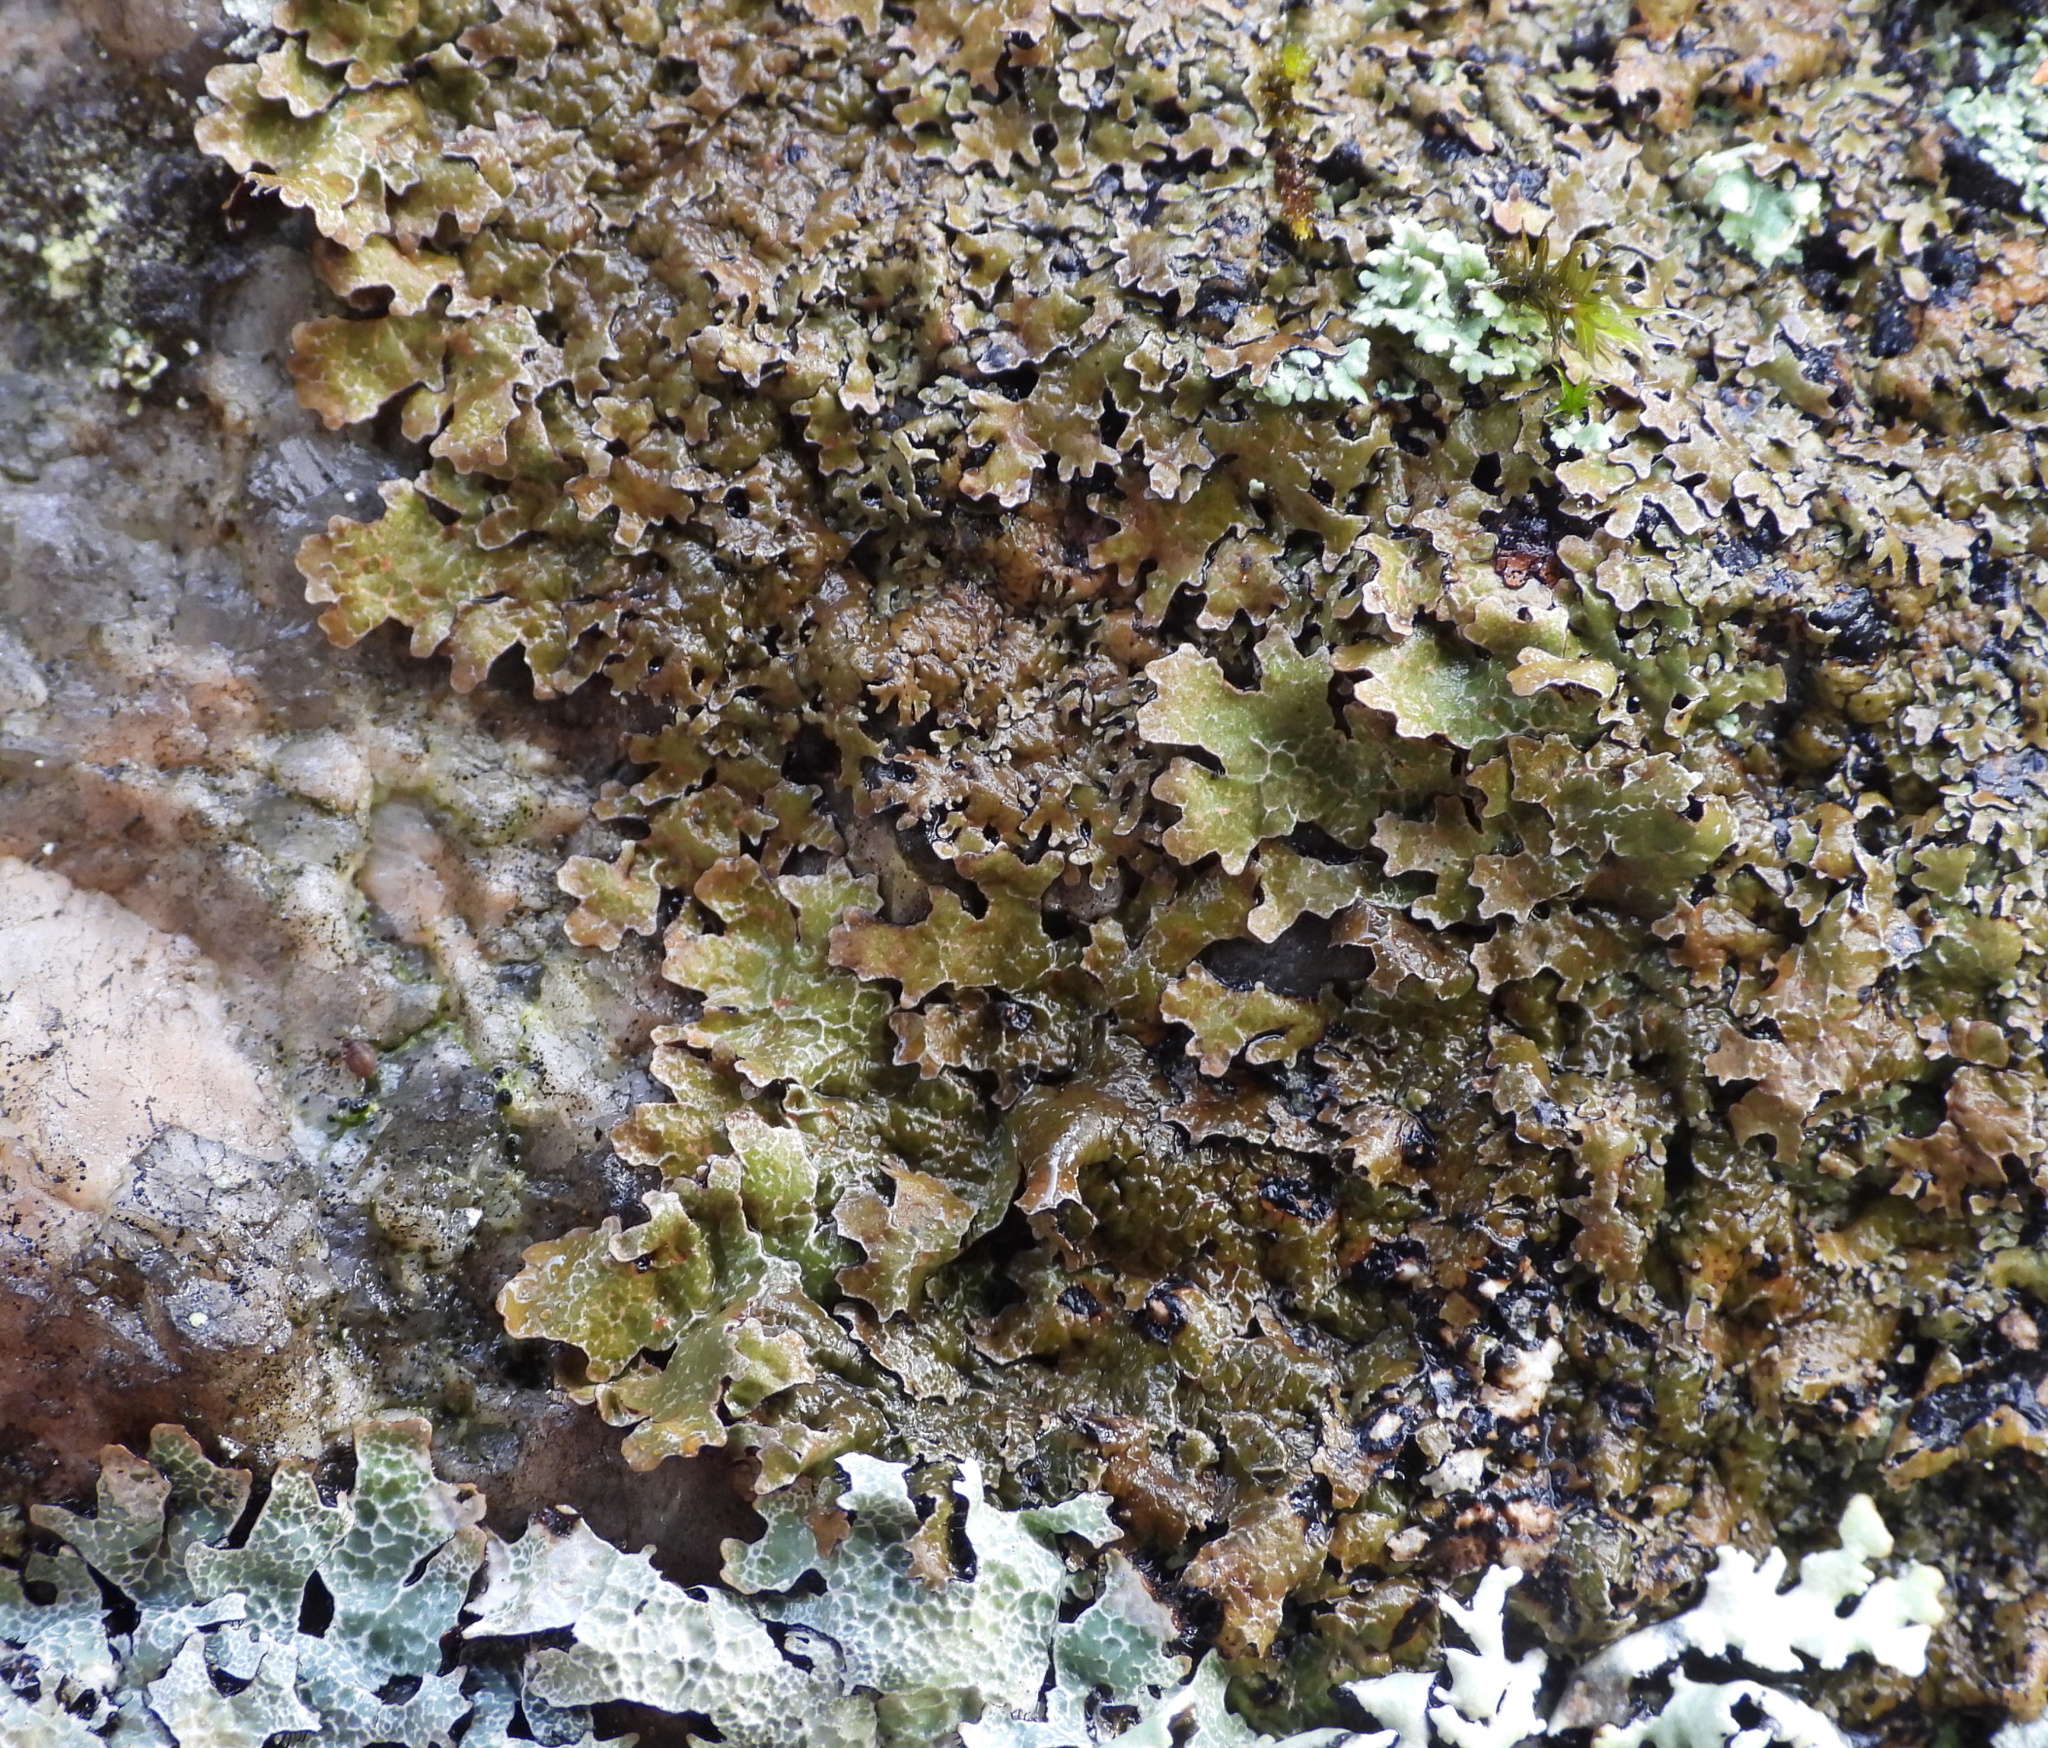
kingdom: Fungi
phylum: Ascomycota
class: Lecanoromycetes
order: Lecanorales
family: Parmeliaceae
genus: Parmelia
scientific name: Parmelia omphalodes
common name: Smoky crottle
